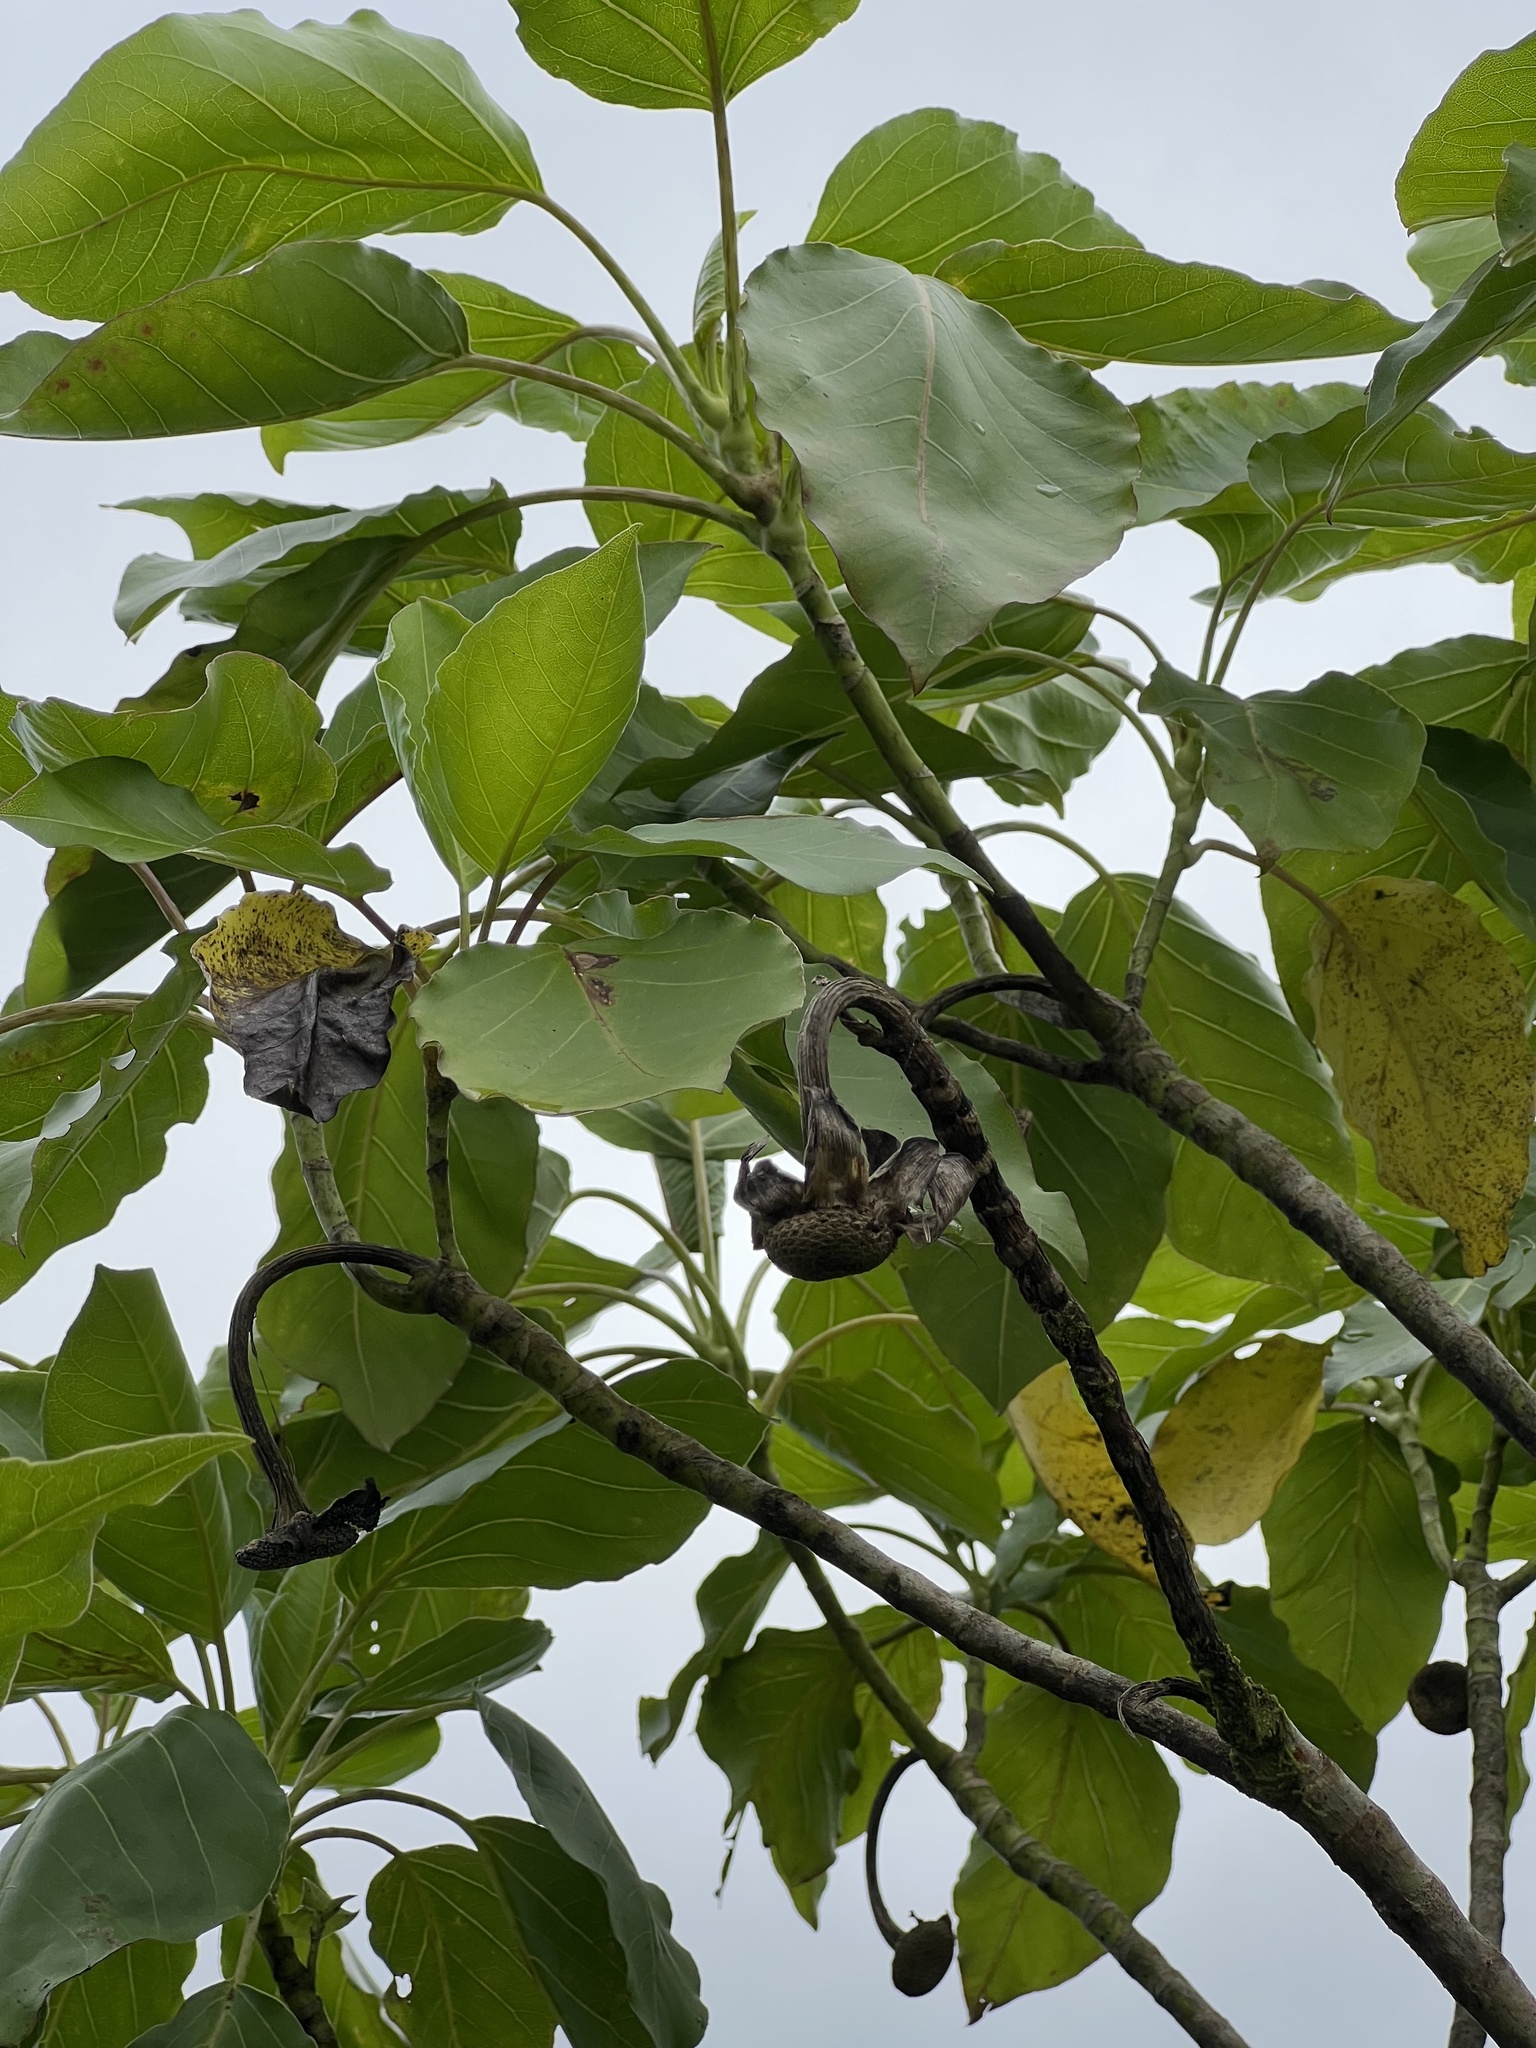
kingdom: Plantae
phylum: Tracheophyta
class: Magnoliopsida
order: Asterales
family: Asteraceae
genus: Fitchia
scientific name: Fitchia speciosa
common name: Burr daisytree
